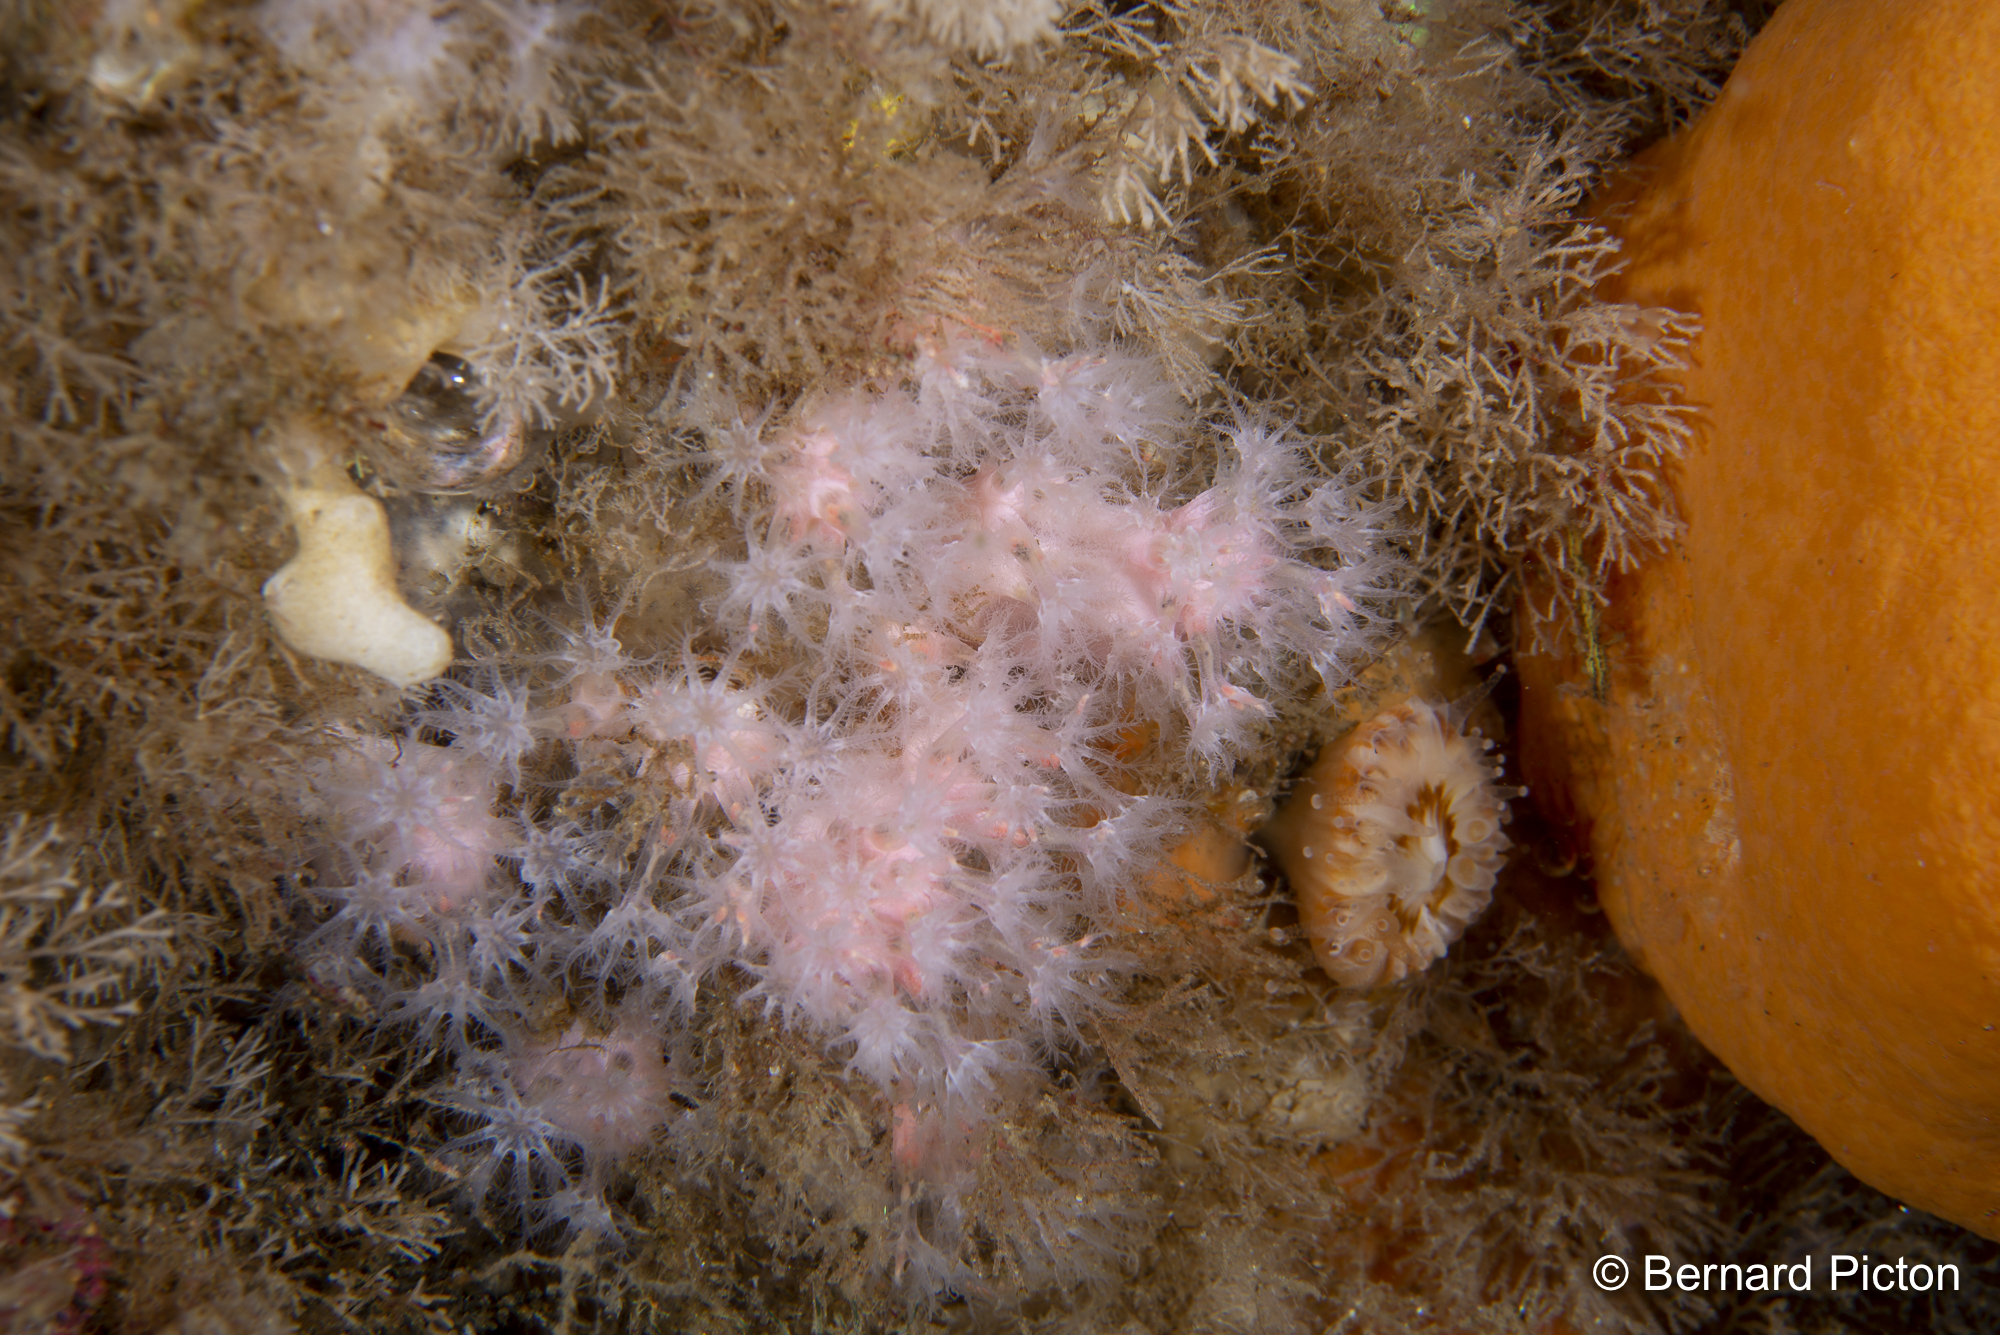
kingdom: Animalia
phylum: Cnidaria
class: Anthozoa
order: Malacalcyonacea
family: Alcyoniidae
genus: Alcyonium
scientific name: Alcyonium hibernicum
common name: Pink sea fingers
